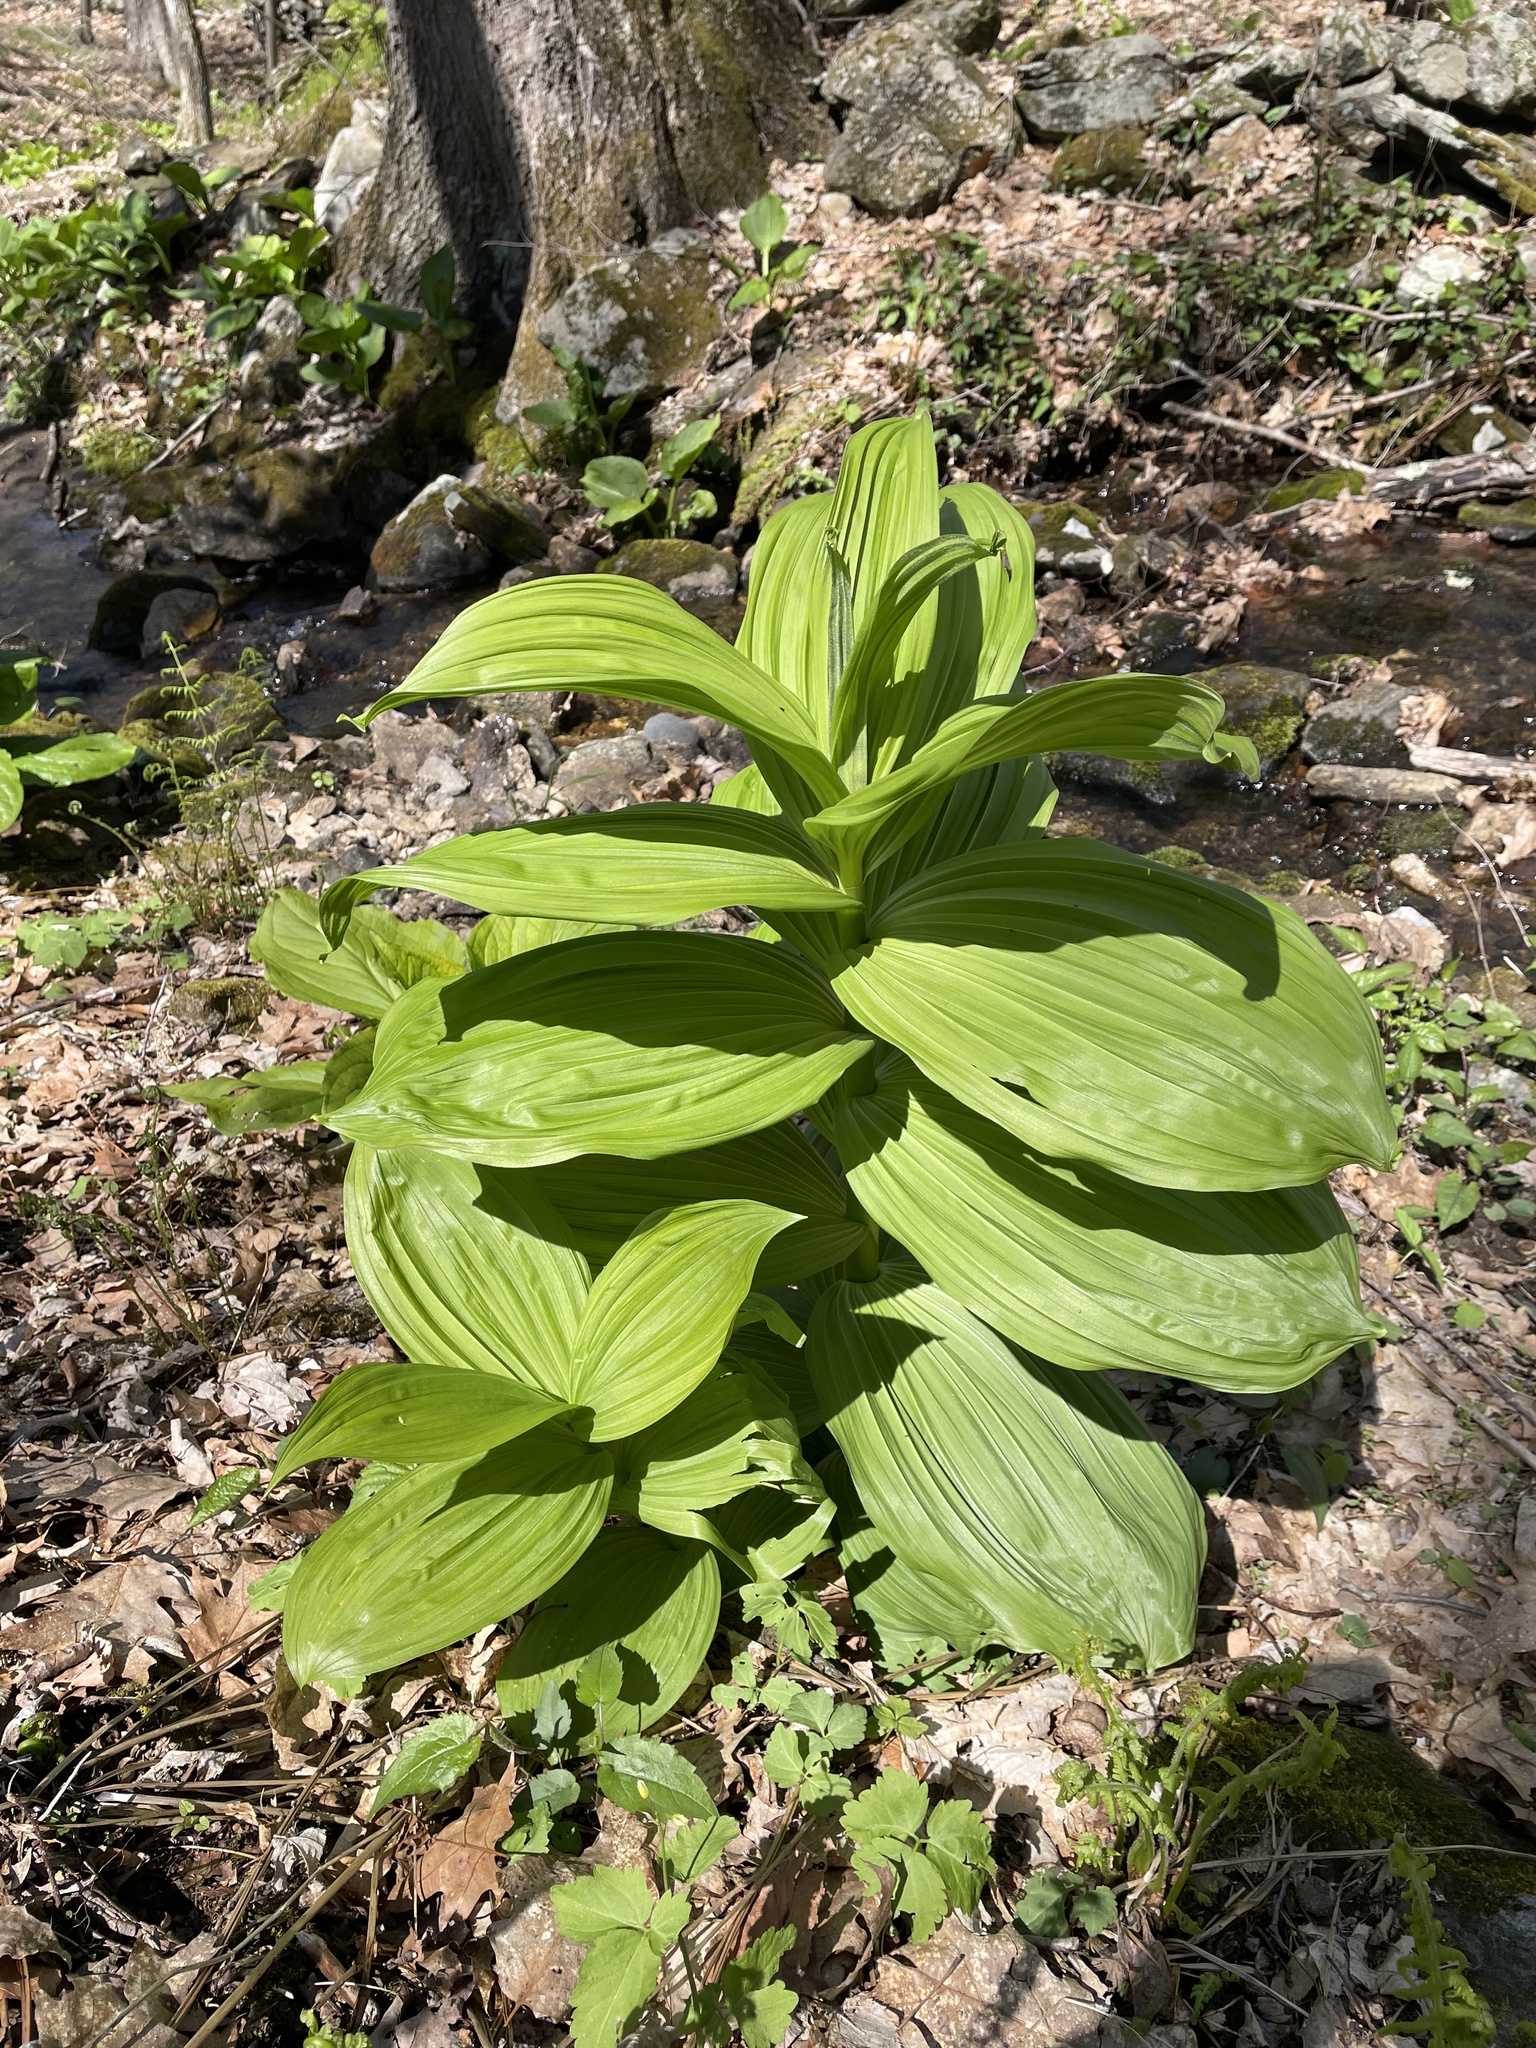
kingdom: Plantae
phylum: Tracheophyta
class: Liliopsida
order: Liliales
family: Melanthiaceae
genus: Veratrum
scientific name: Veratrum viride
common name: American false hellebore
